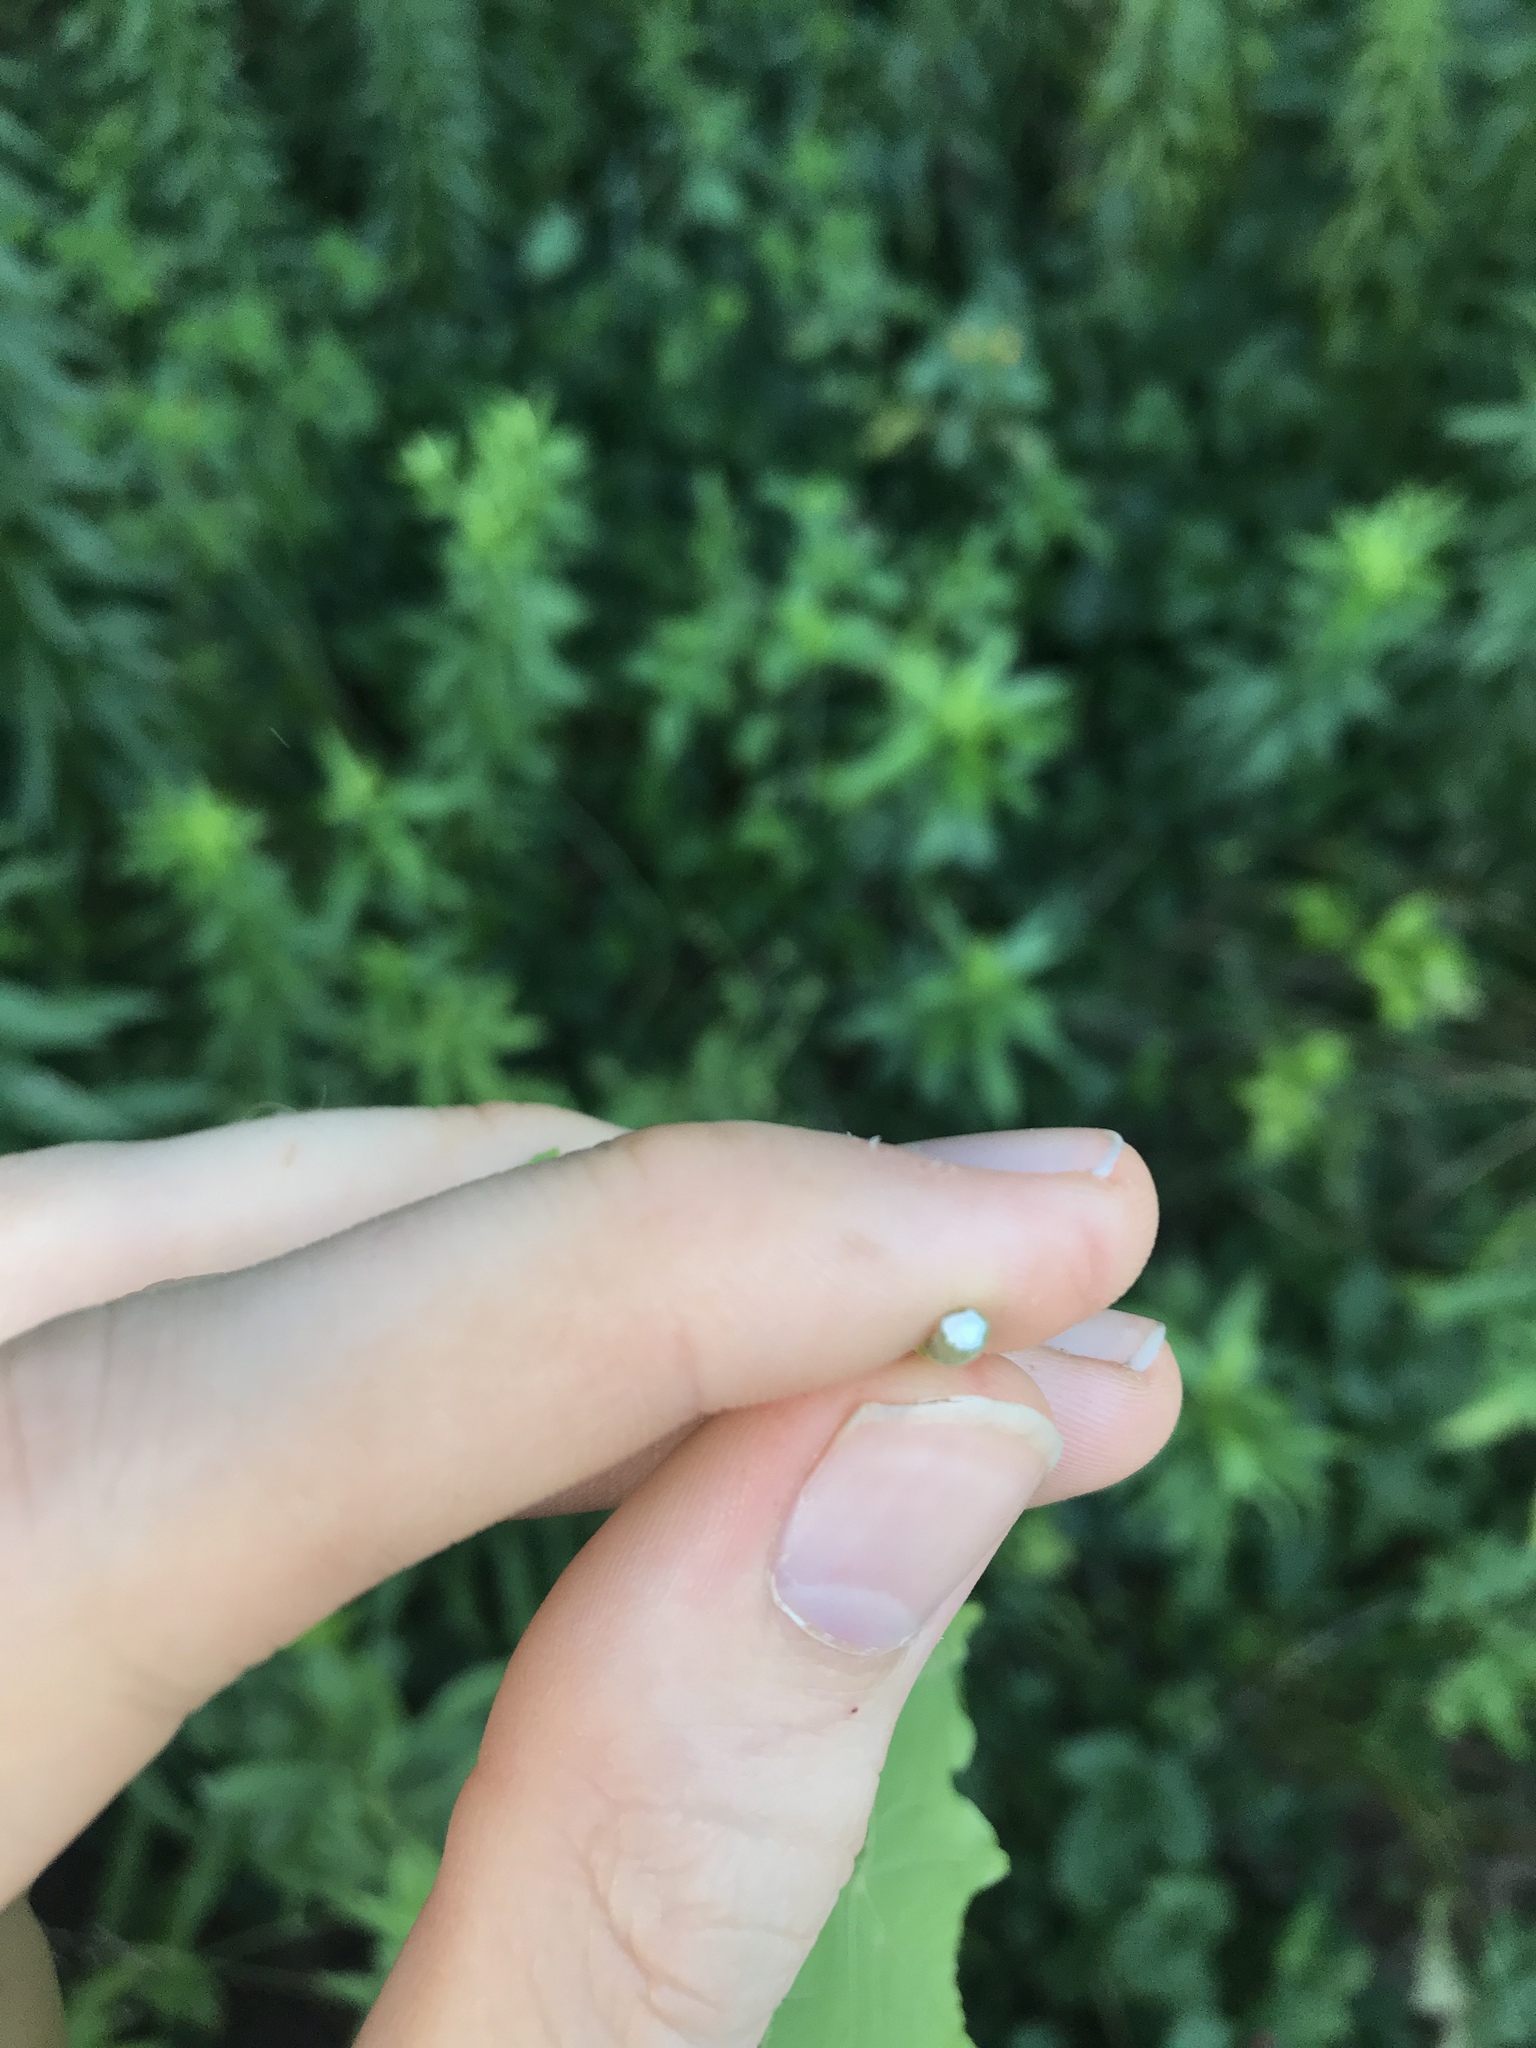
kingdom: Plantae
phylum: Tracheophyta
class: Magnoliopsida
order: Sapindales
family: Sapindaceae
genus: Acer
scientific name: Acer platanoides
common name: Norway maple
